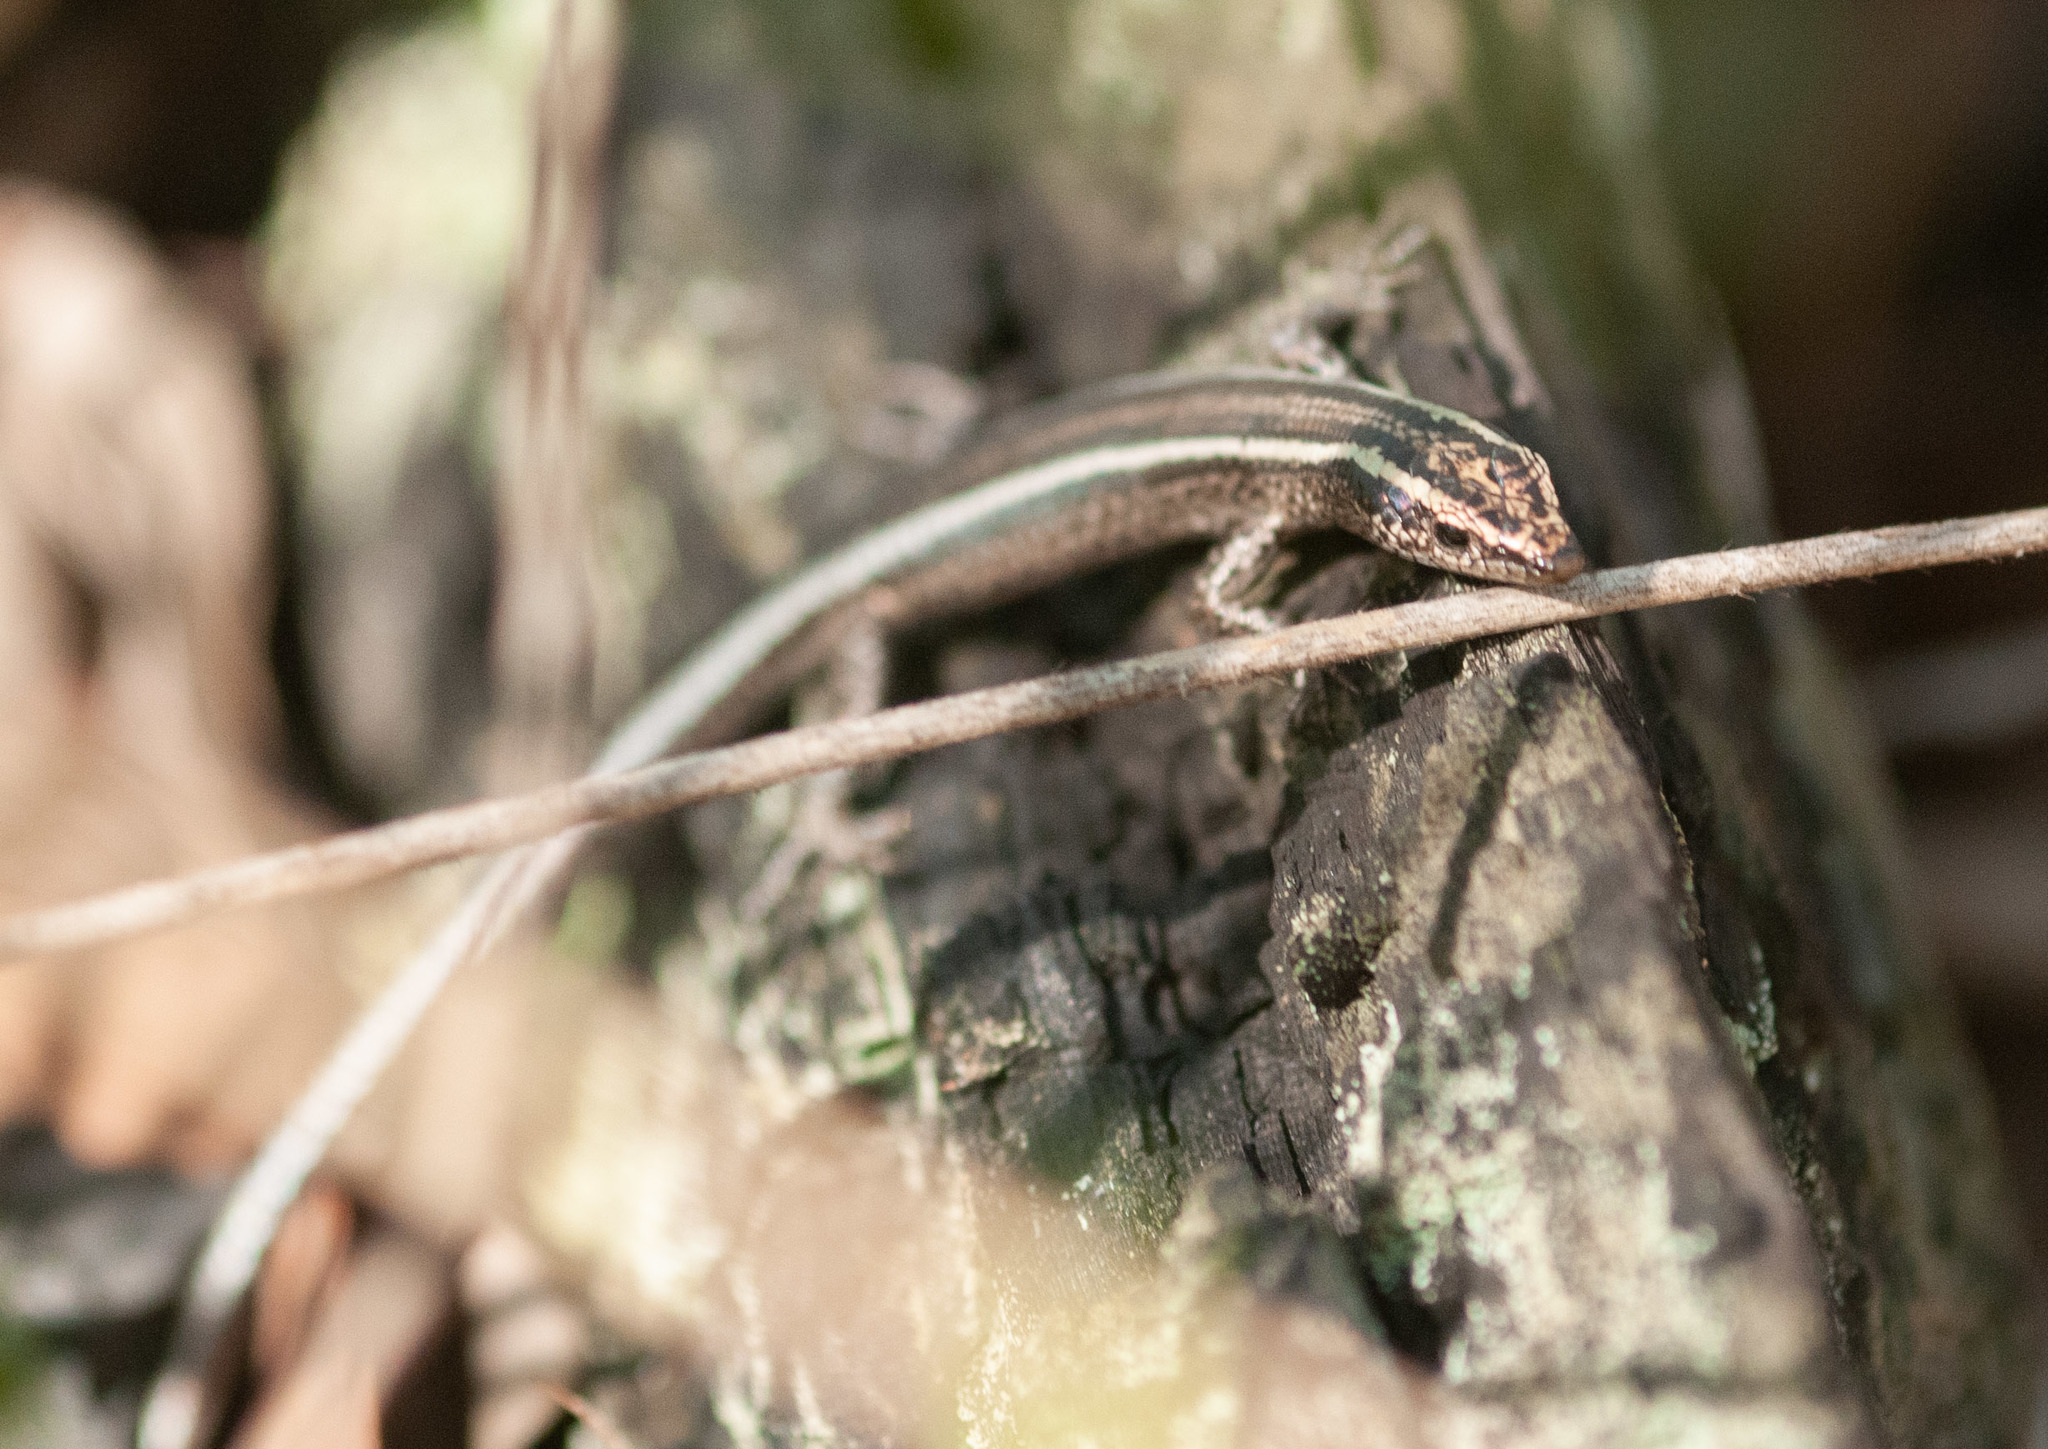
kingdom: Animalia
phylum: Chordata
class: Squamata
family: Scincidae
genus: Cryptoblepharus
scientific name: Cryptoblepharus pulcher
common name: Elegant snake-eyed skink
